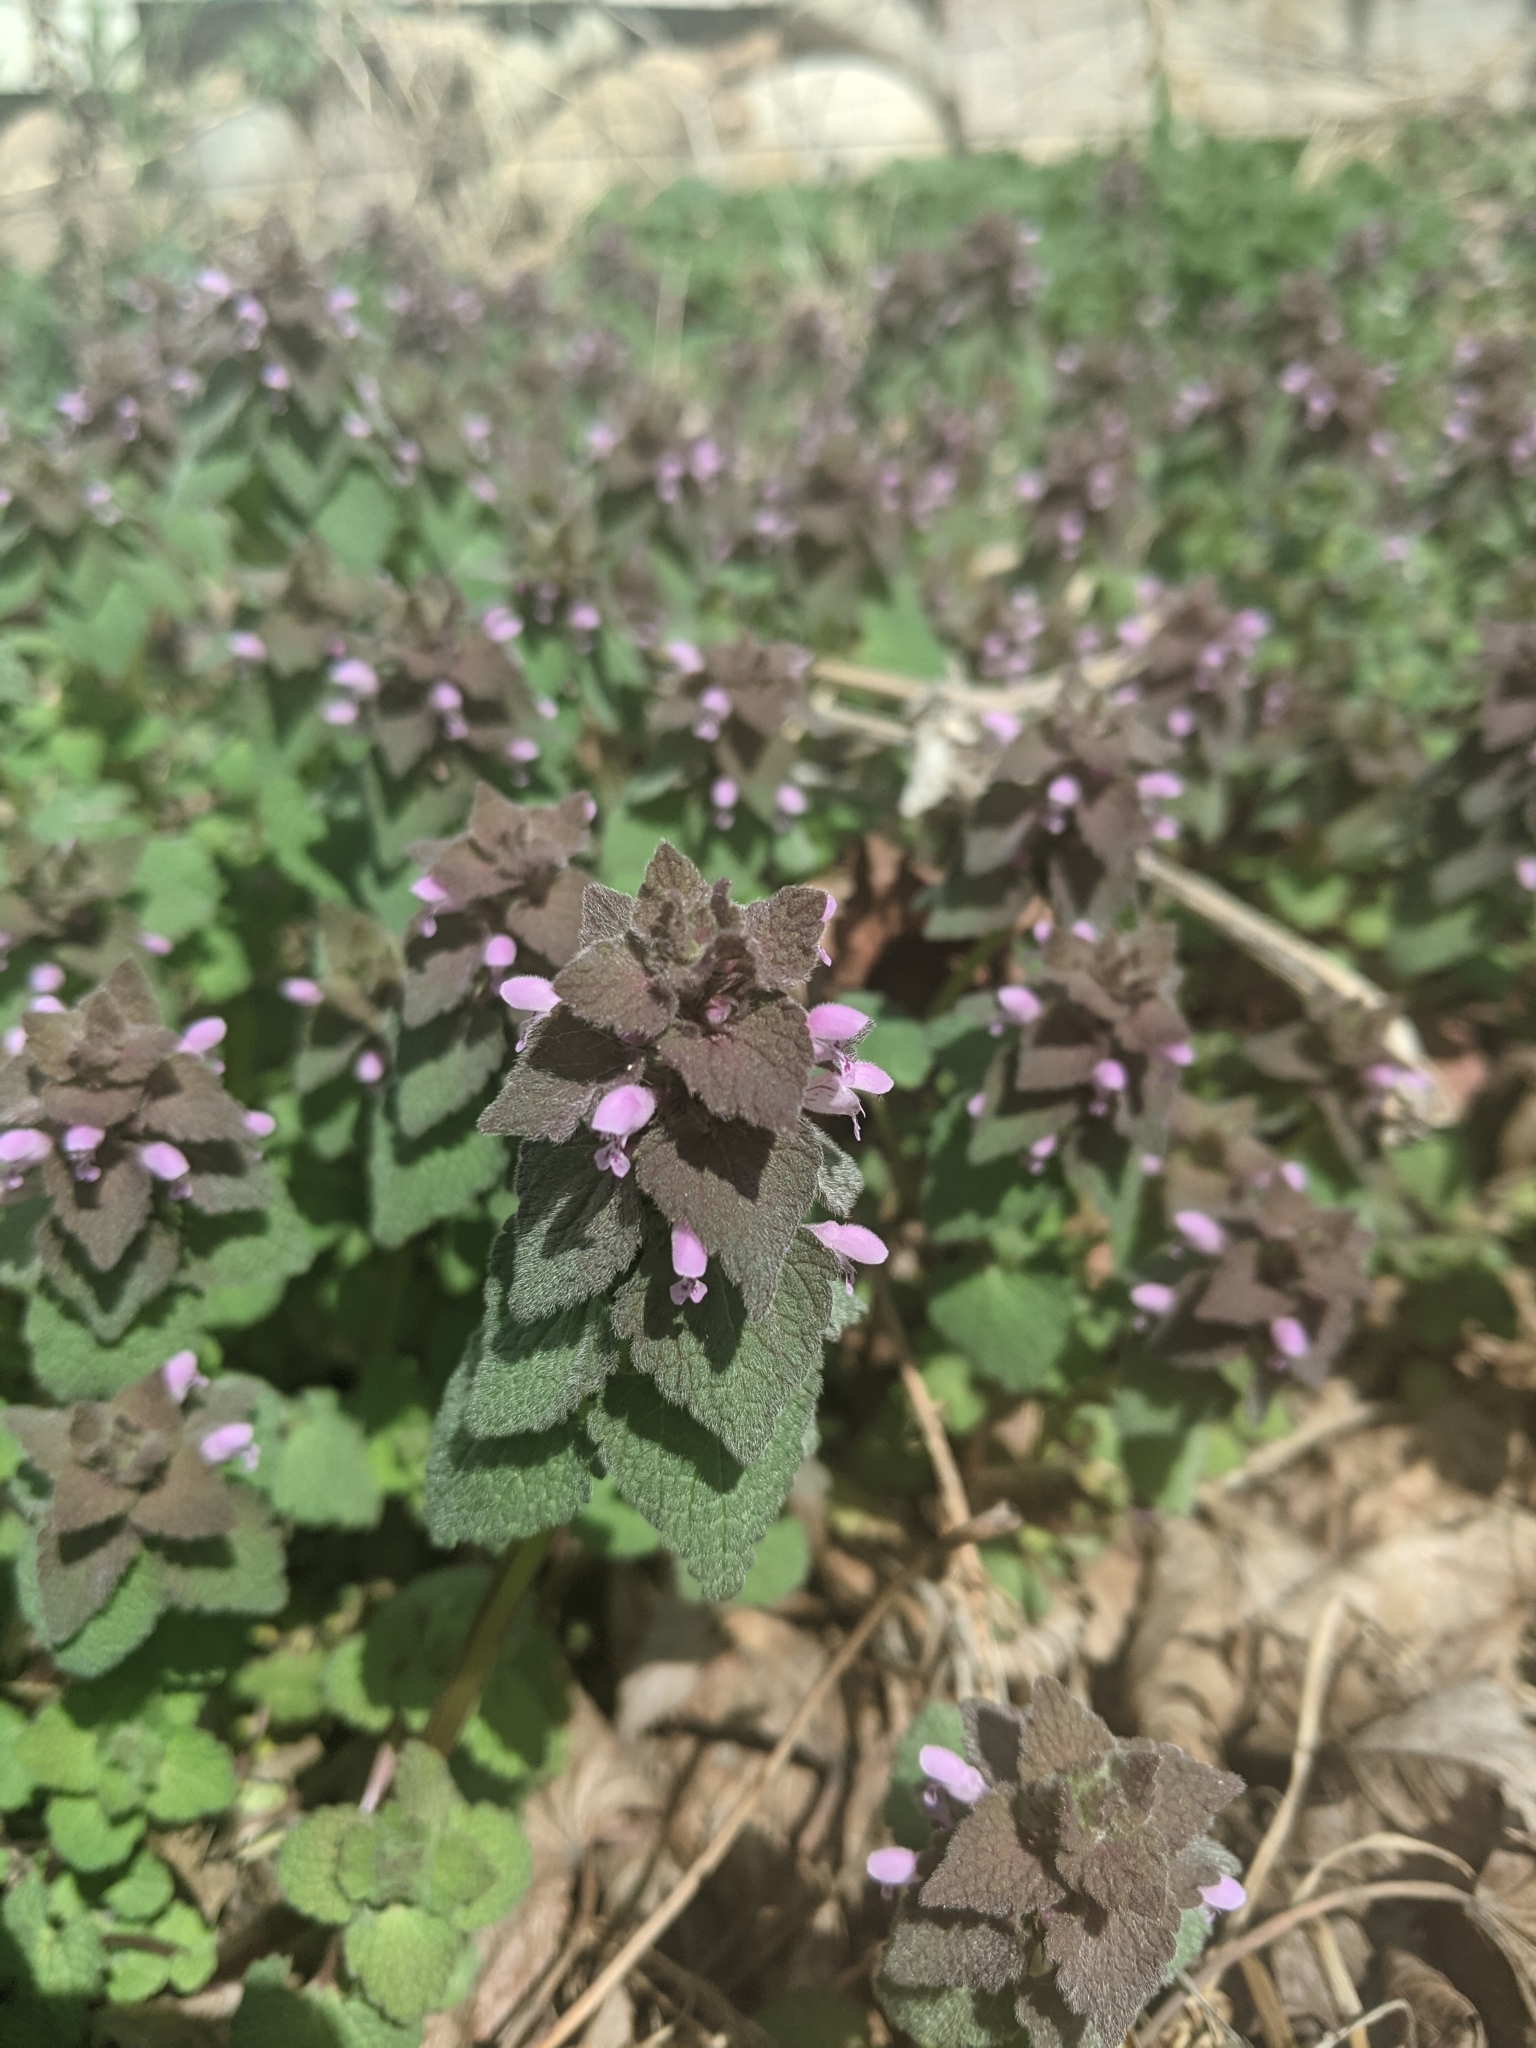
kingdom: Plantae
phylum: Tracheophyta
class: Magnoliopsida
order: Lamiales
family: Lamiaceae
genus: Lamium
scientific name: Lamium purpureum
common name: Red dead-nettle
